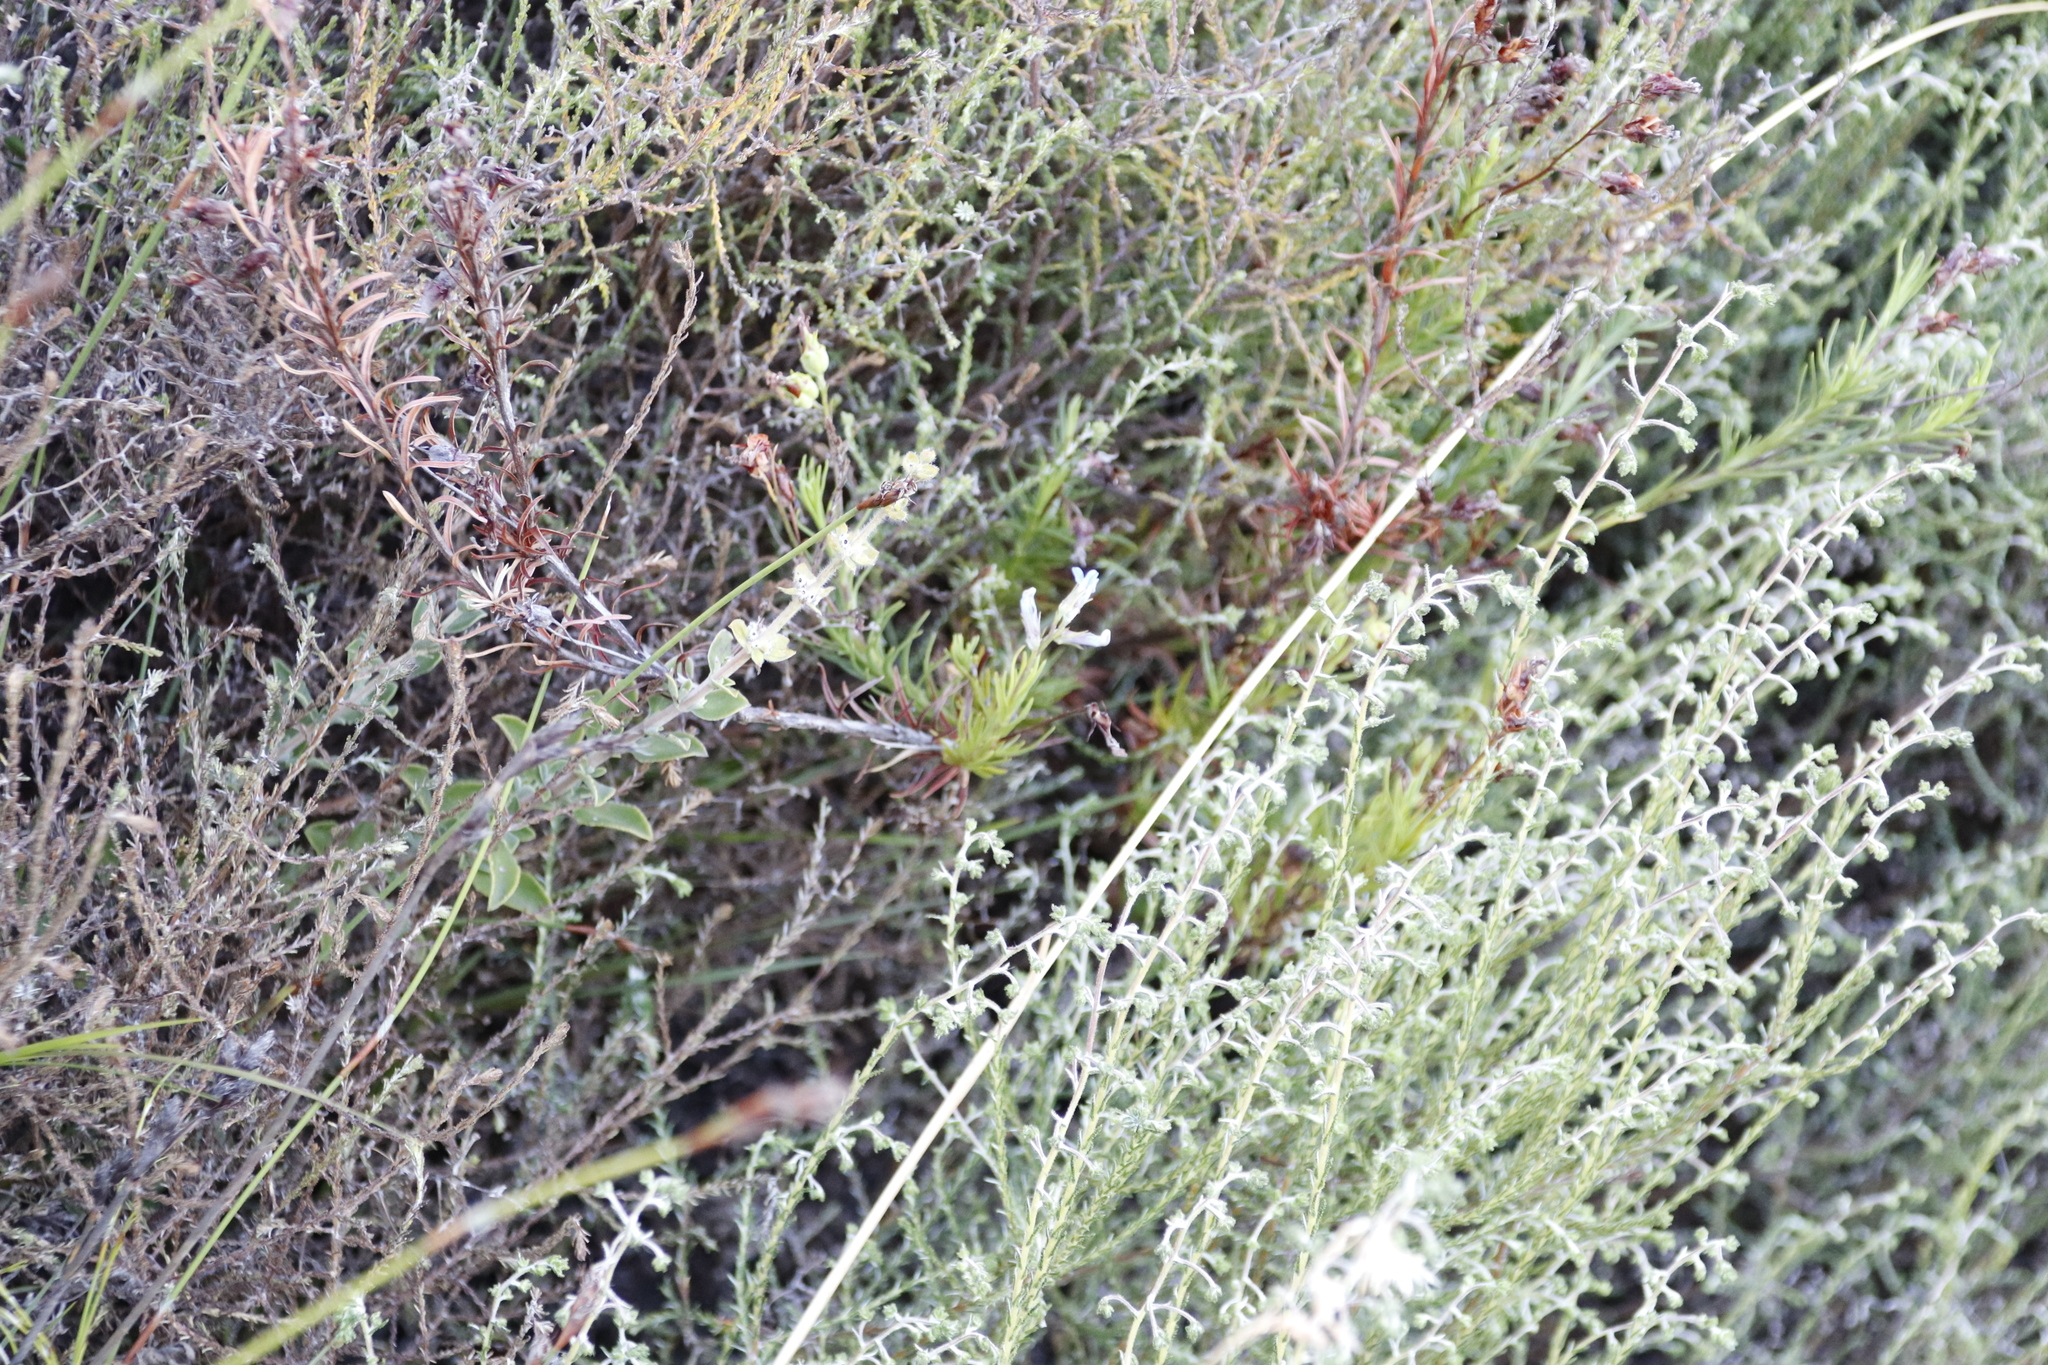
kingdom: Plantae
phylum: Tracheophyta
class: Magnoliopsida
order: Asterales
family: Campanulaceae
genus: Lobelia
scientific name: Lobelia pinifolia
